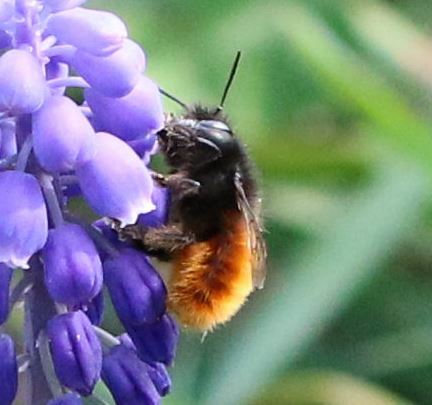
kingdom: Animalia
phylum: Arthropoda
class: Insecta
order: Hymenoptera
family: Megachilidae
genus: Osmia
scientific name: Osmia cornuta
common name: Mason bee
